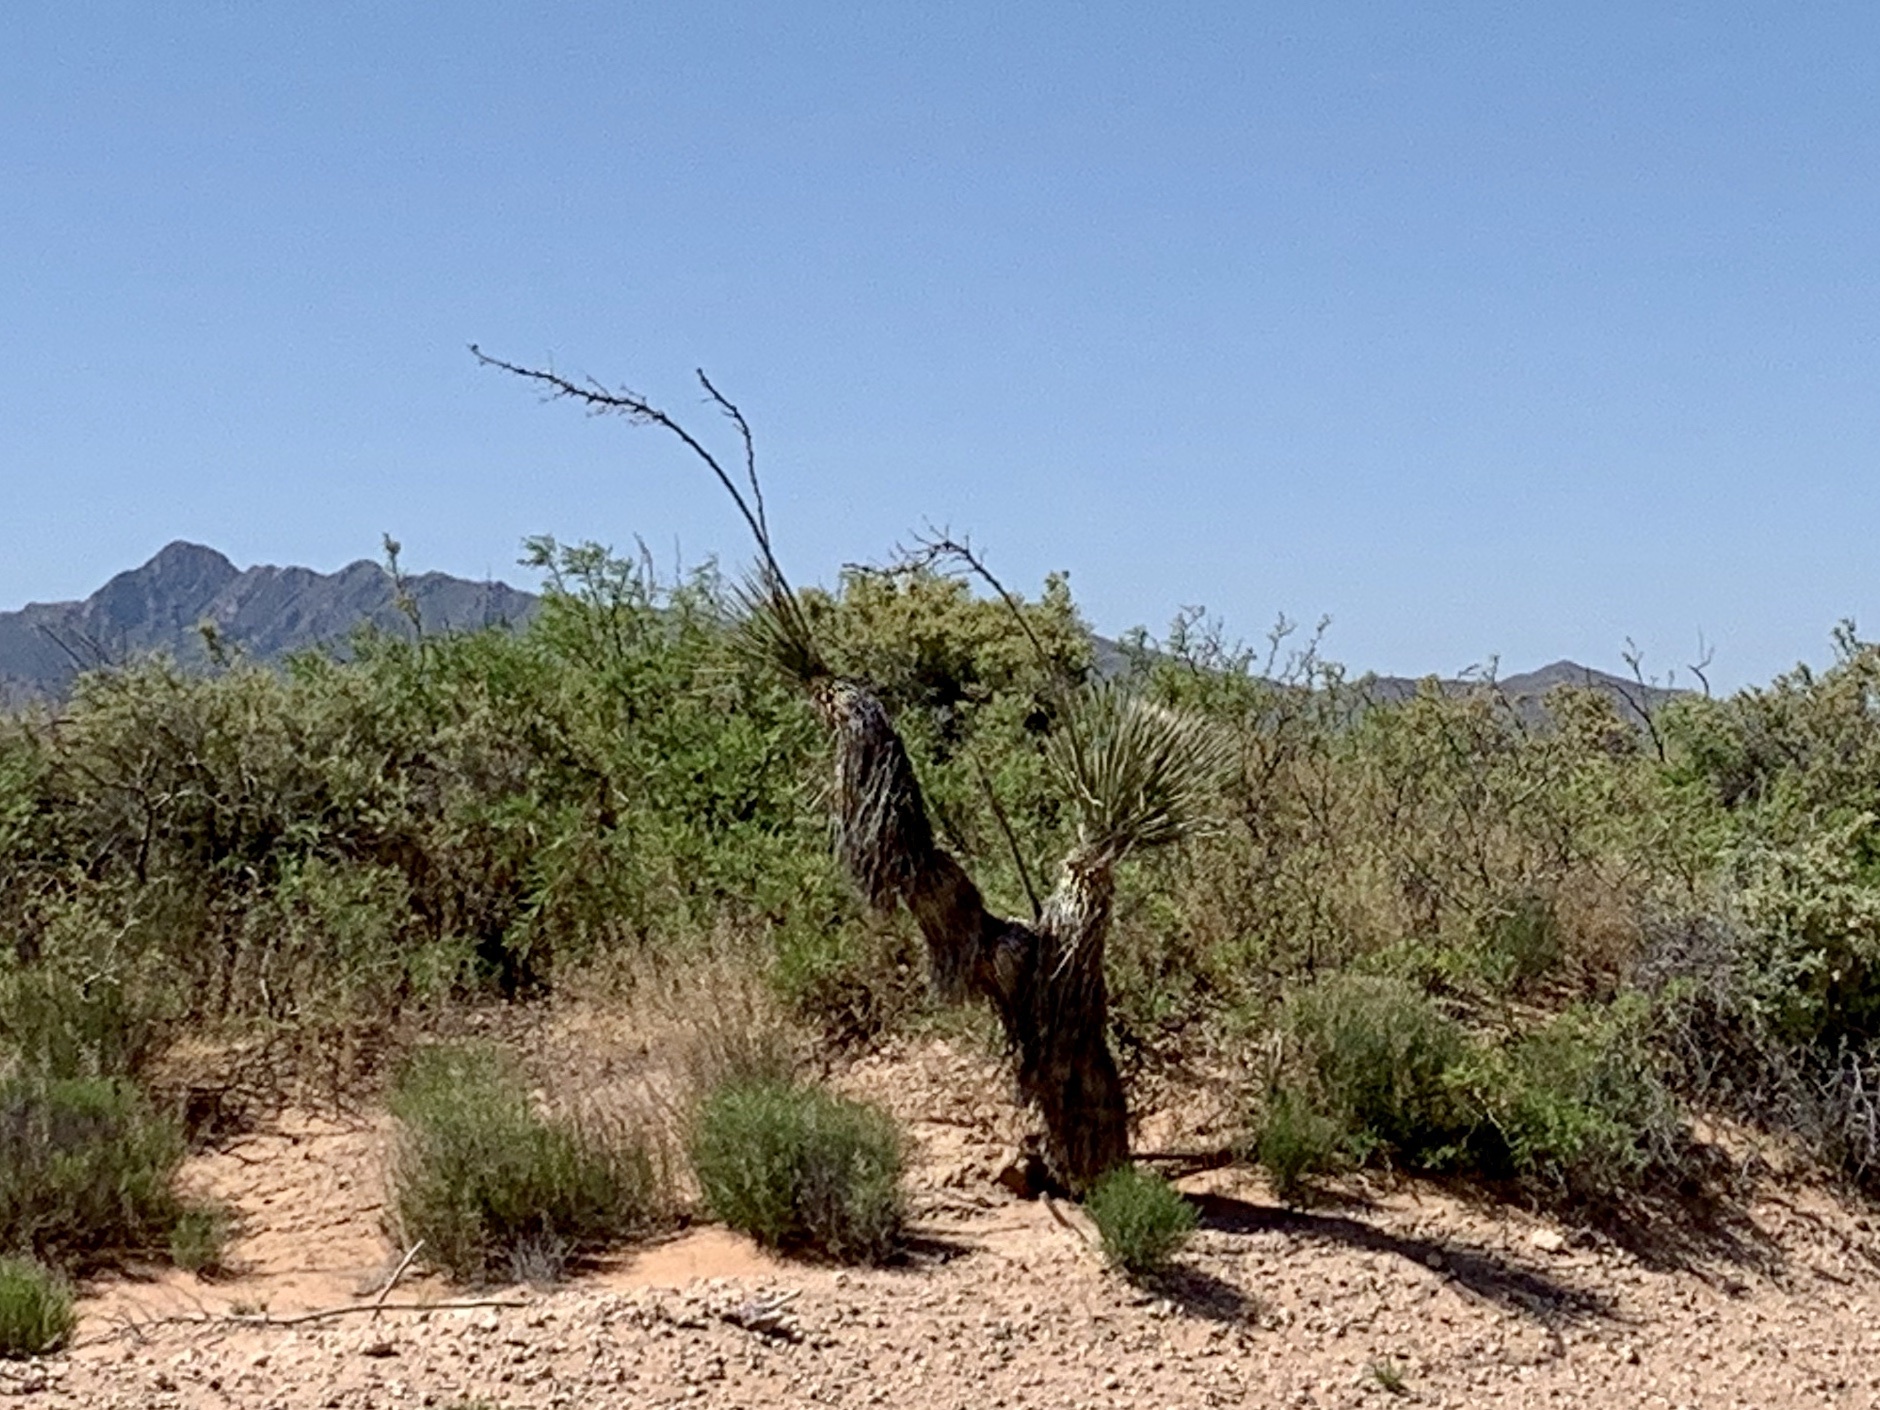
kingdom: Plantae
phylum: Tracheophyta
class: Liliopsida
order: Asparagales
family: Asparagaceae
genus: Yucca
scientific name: Yucca elata
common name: Palmella
